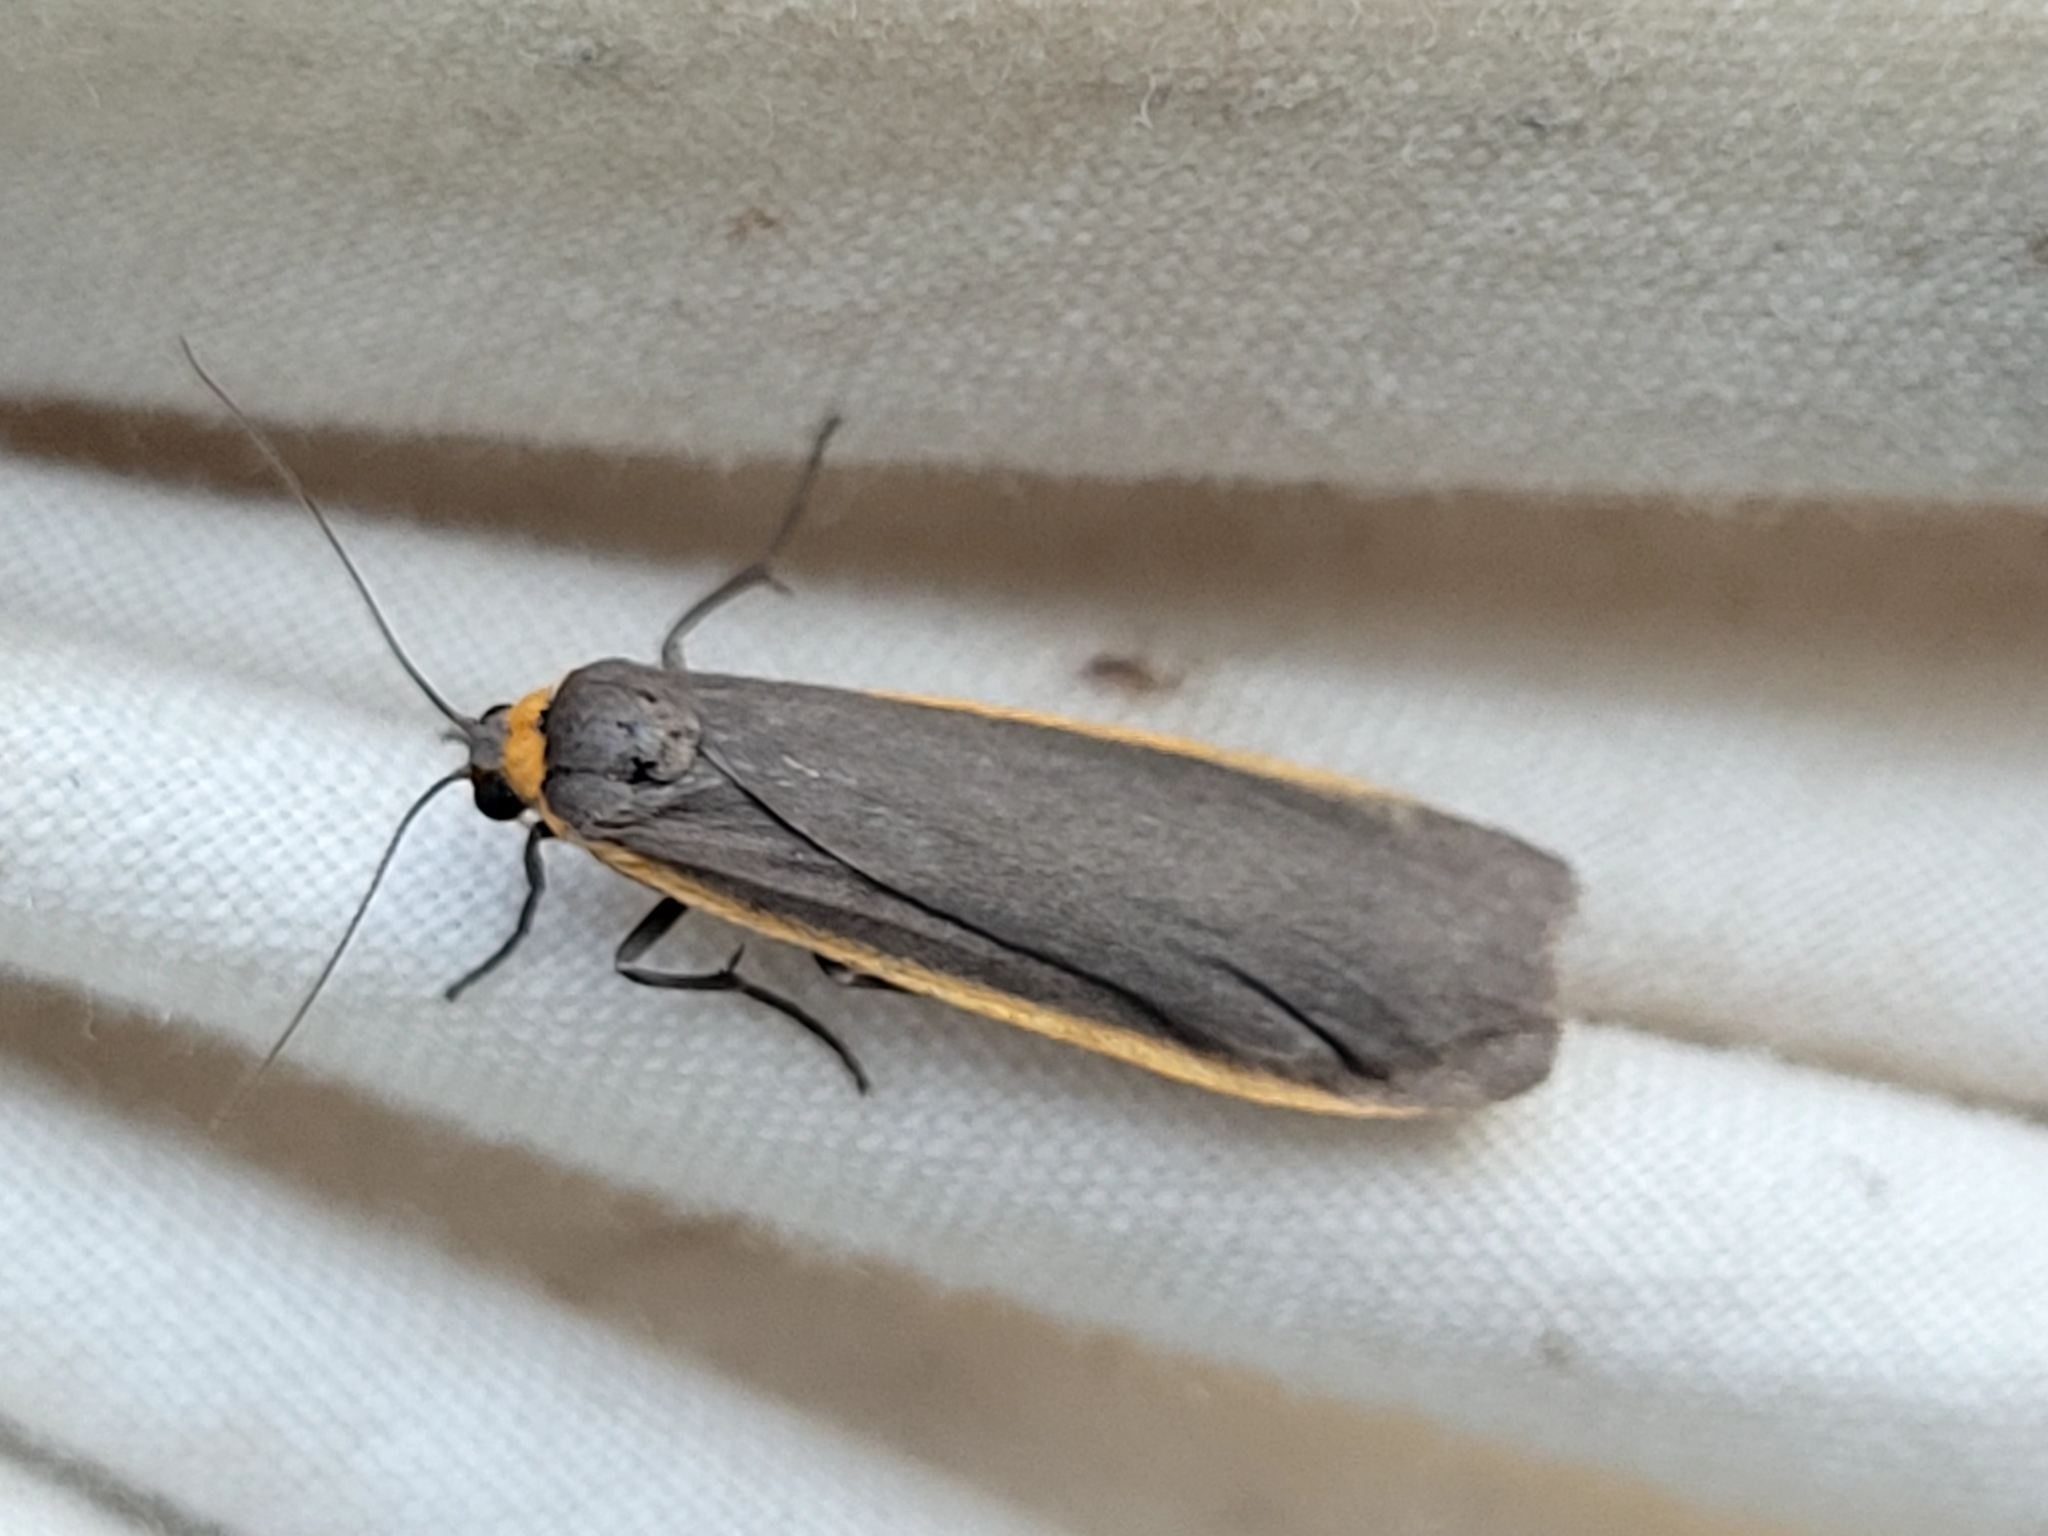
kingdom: Animalia
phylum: Arthropoda
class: Insecta
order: Lepidoptera
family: Erebidae
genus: Manulea
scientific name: Manulea bicolor
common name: Bicolored moth
